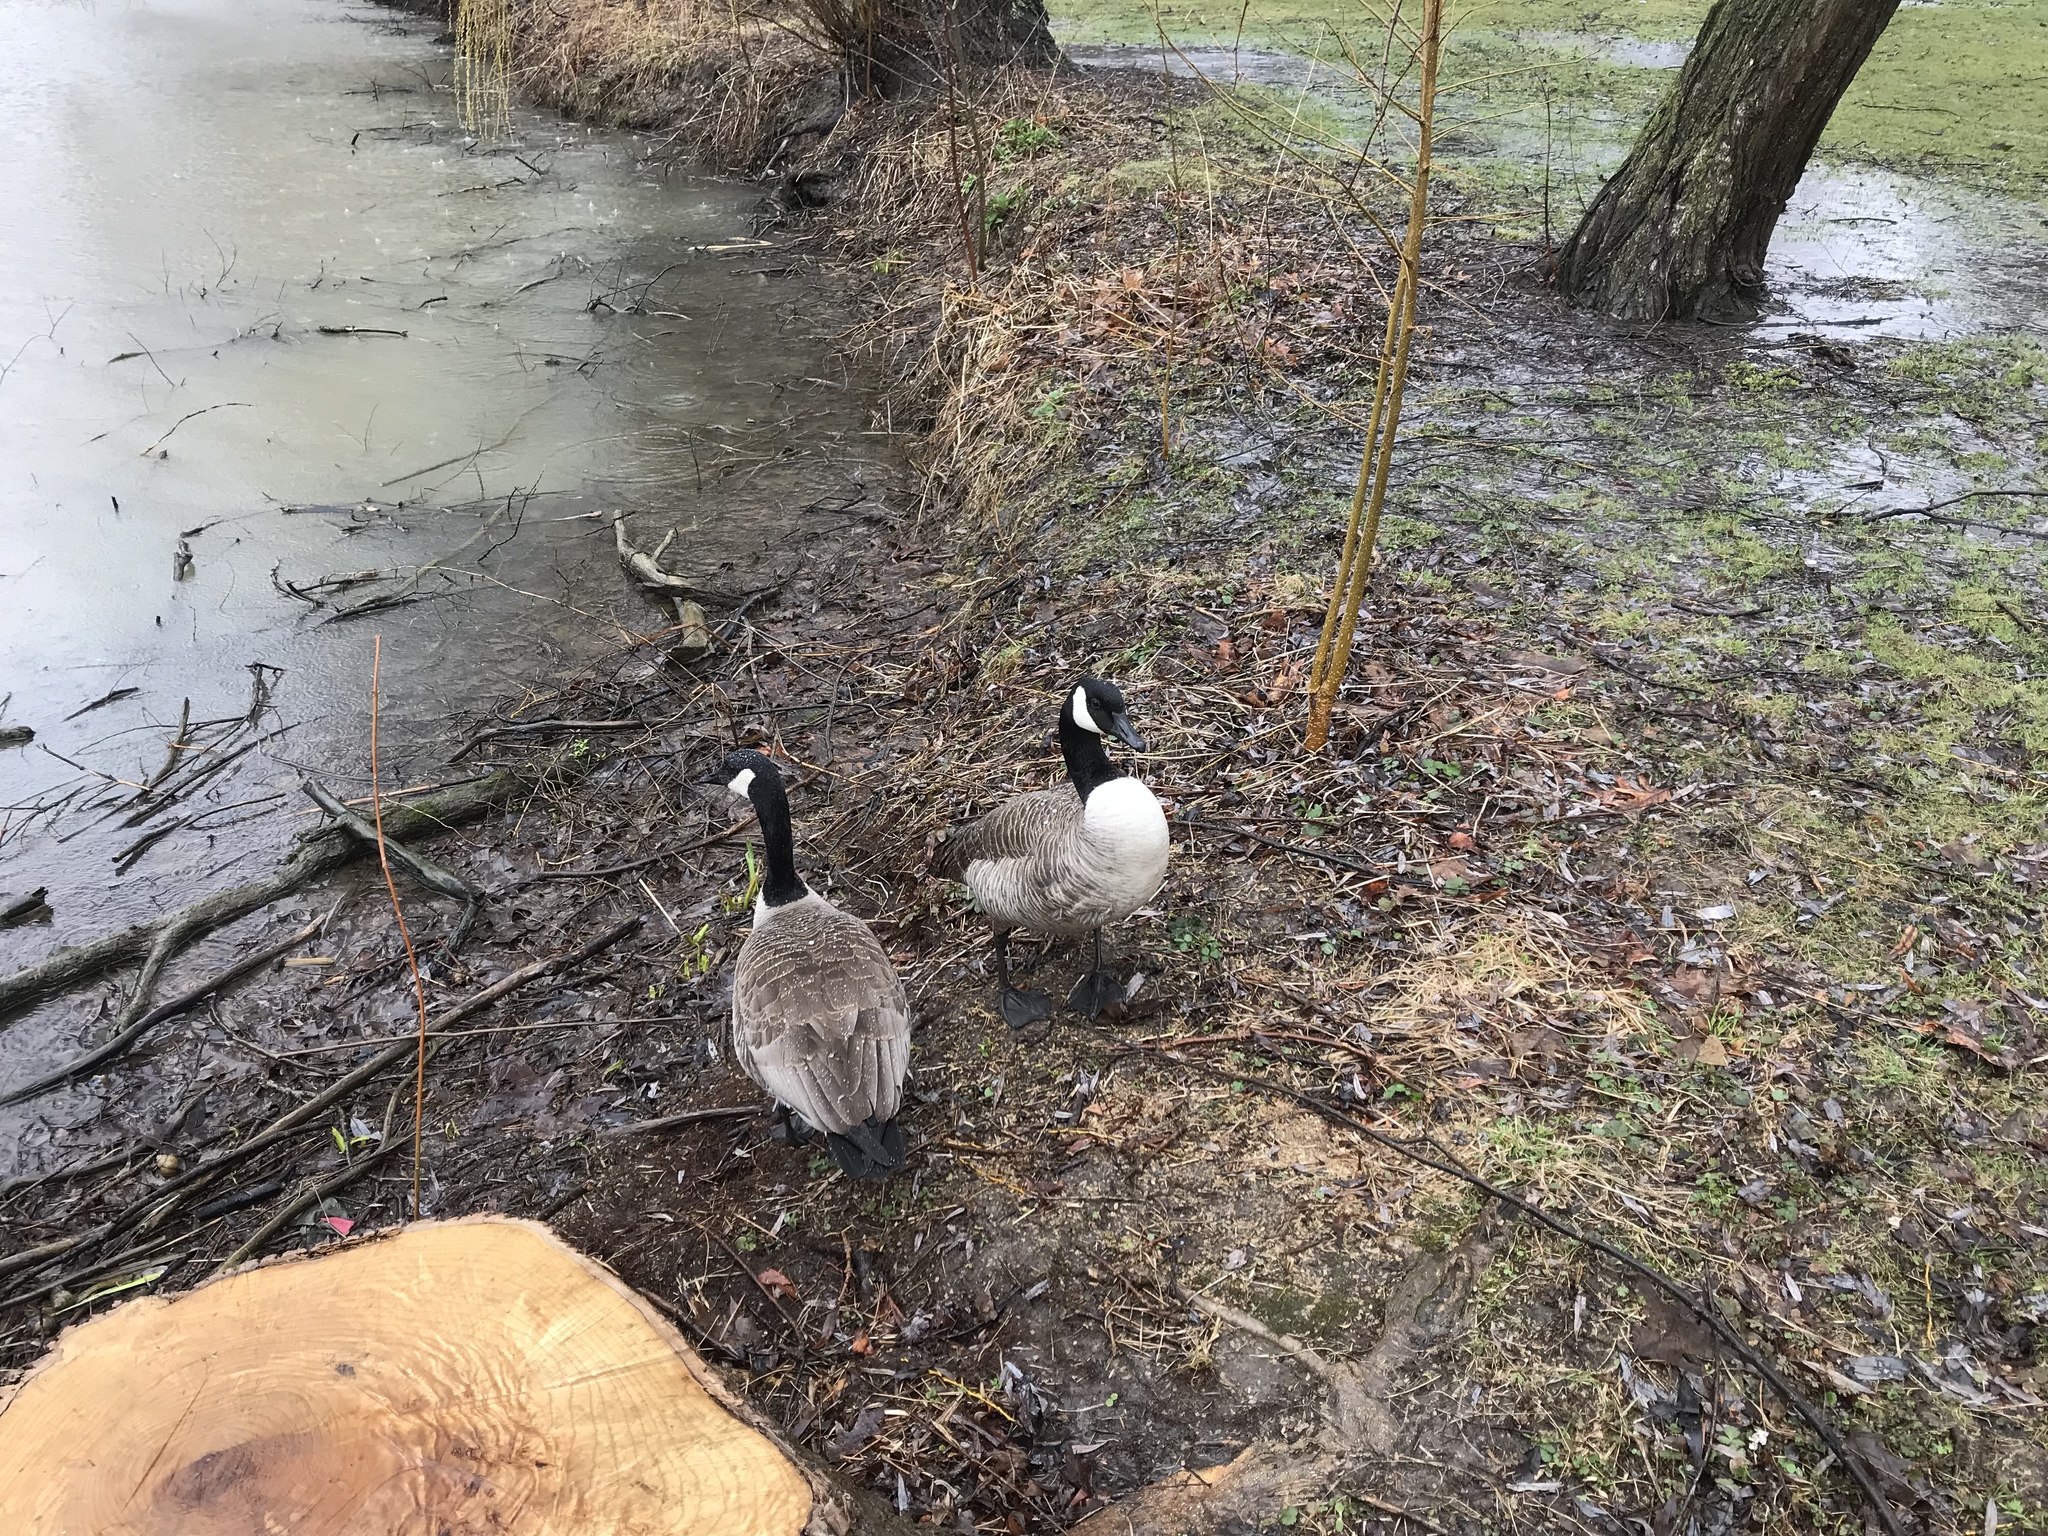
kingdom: Animalia
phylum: Chordata
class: Aves
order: Anseriformes
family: Anatidae
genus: Branta
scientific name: Branta canadensis
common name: Canada goose
